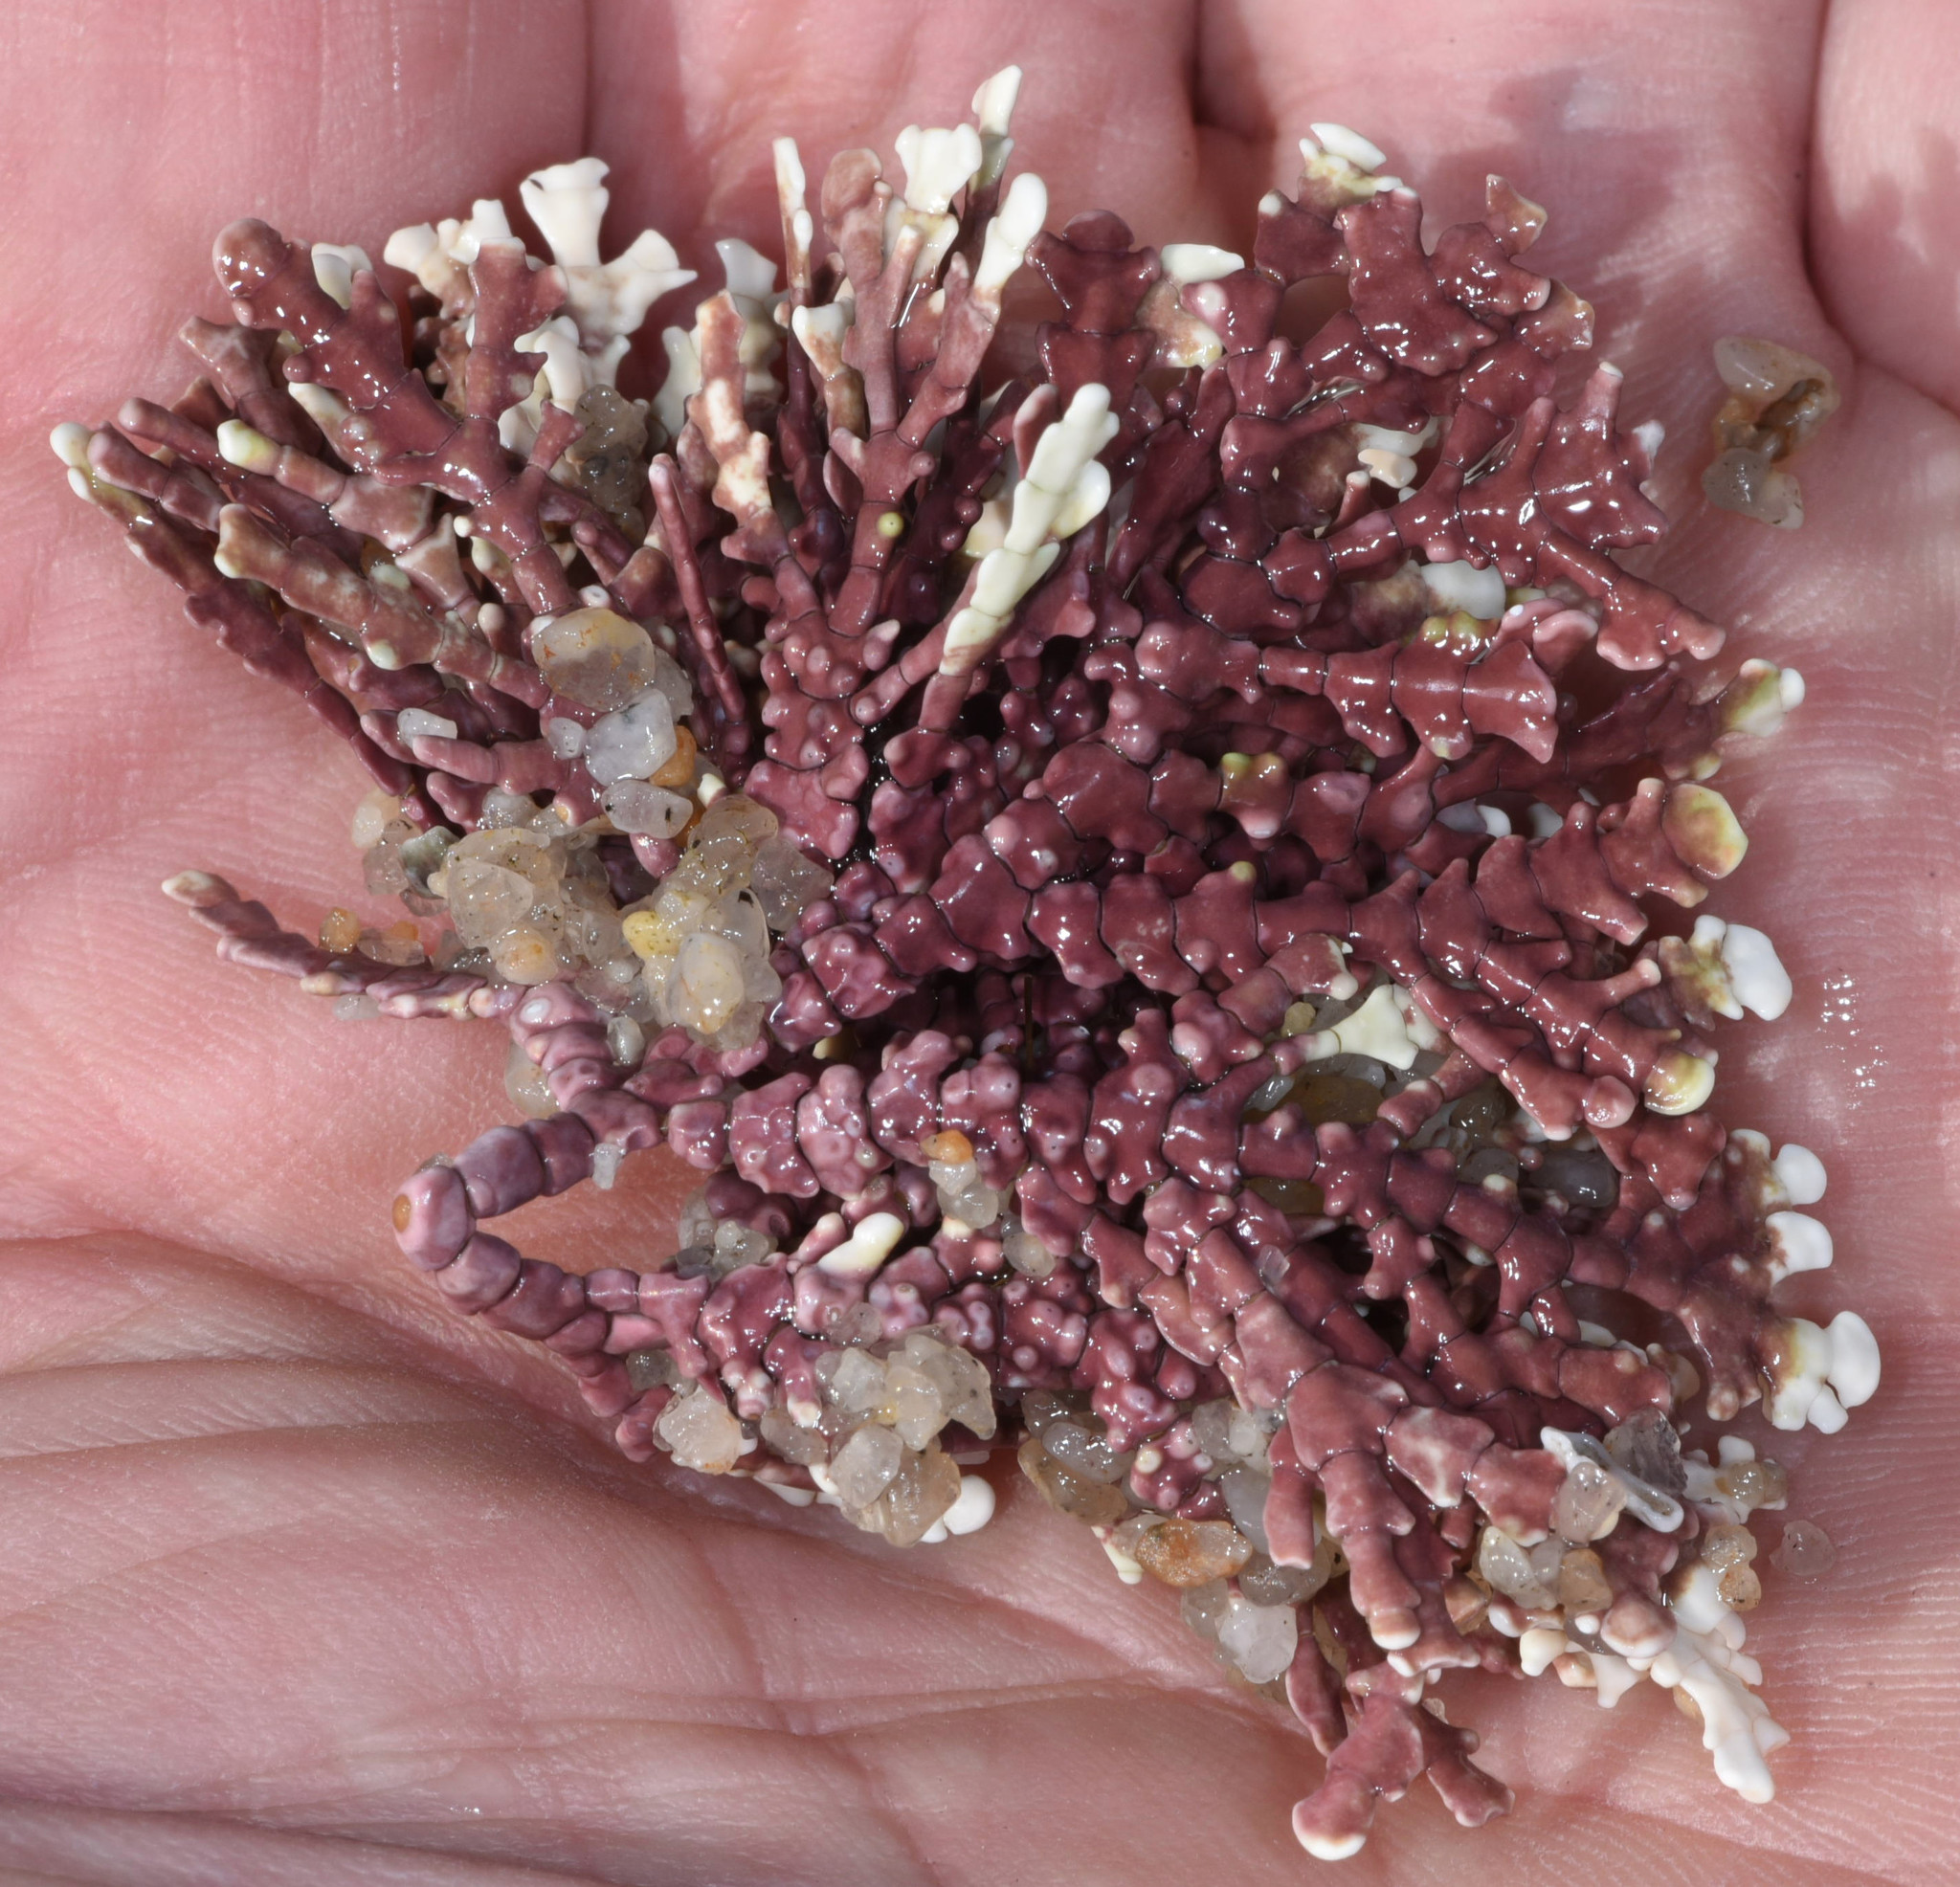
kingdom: Plantae
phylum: Rhodophyta
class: Florideophyceae
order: Corallinales
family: Corallinaceae
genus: Bossiella
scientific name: Bossiella chiloensis
